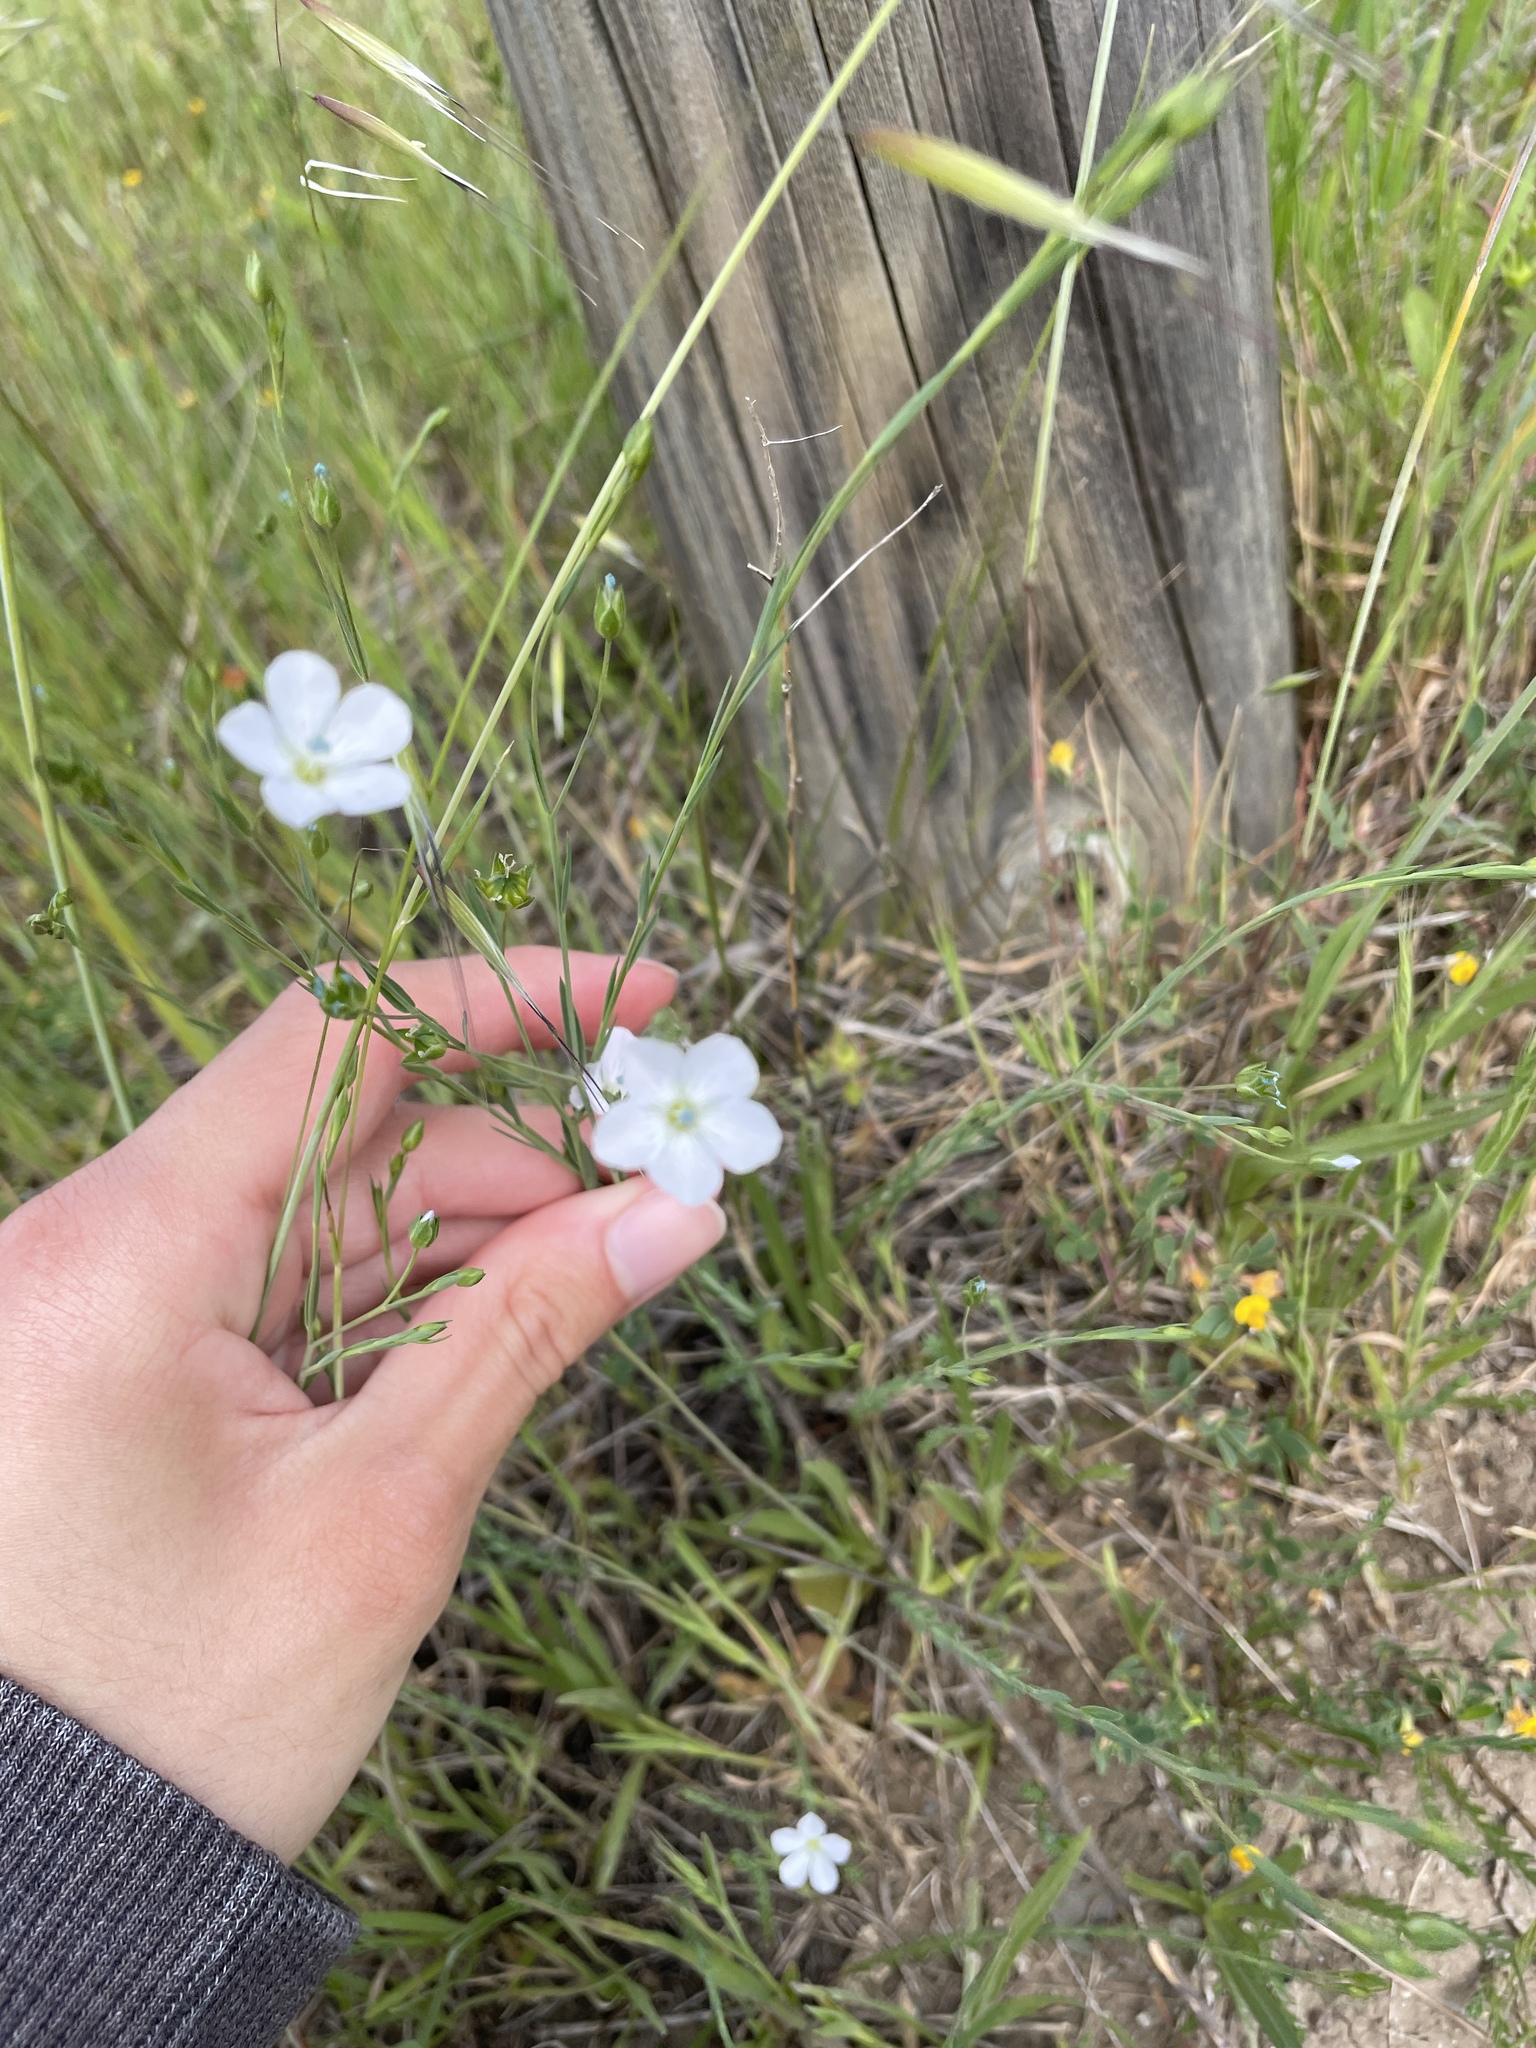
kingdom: Plantae
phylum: Tracheophyta
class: Magnoliopsida
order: Malpighiales
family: Linaceae
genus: Linum
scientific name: Linum bienne
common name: Pale flax
